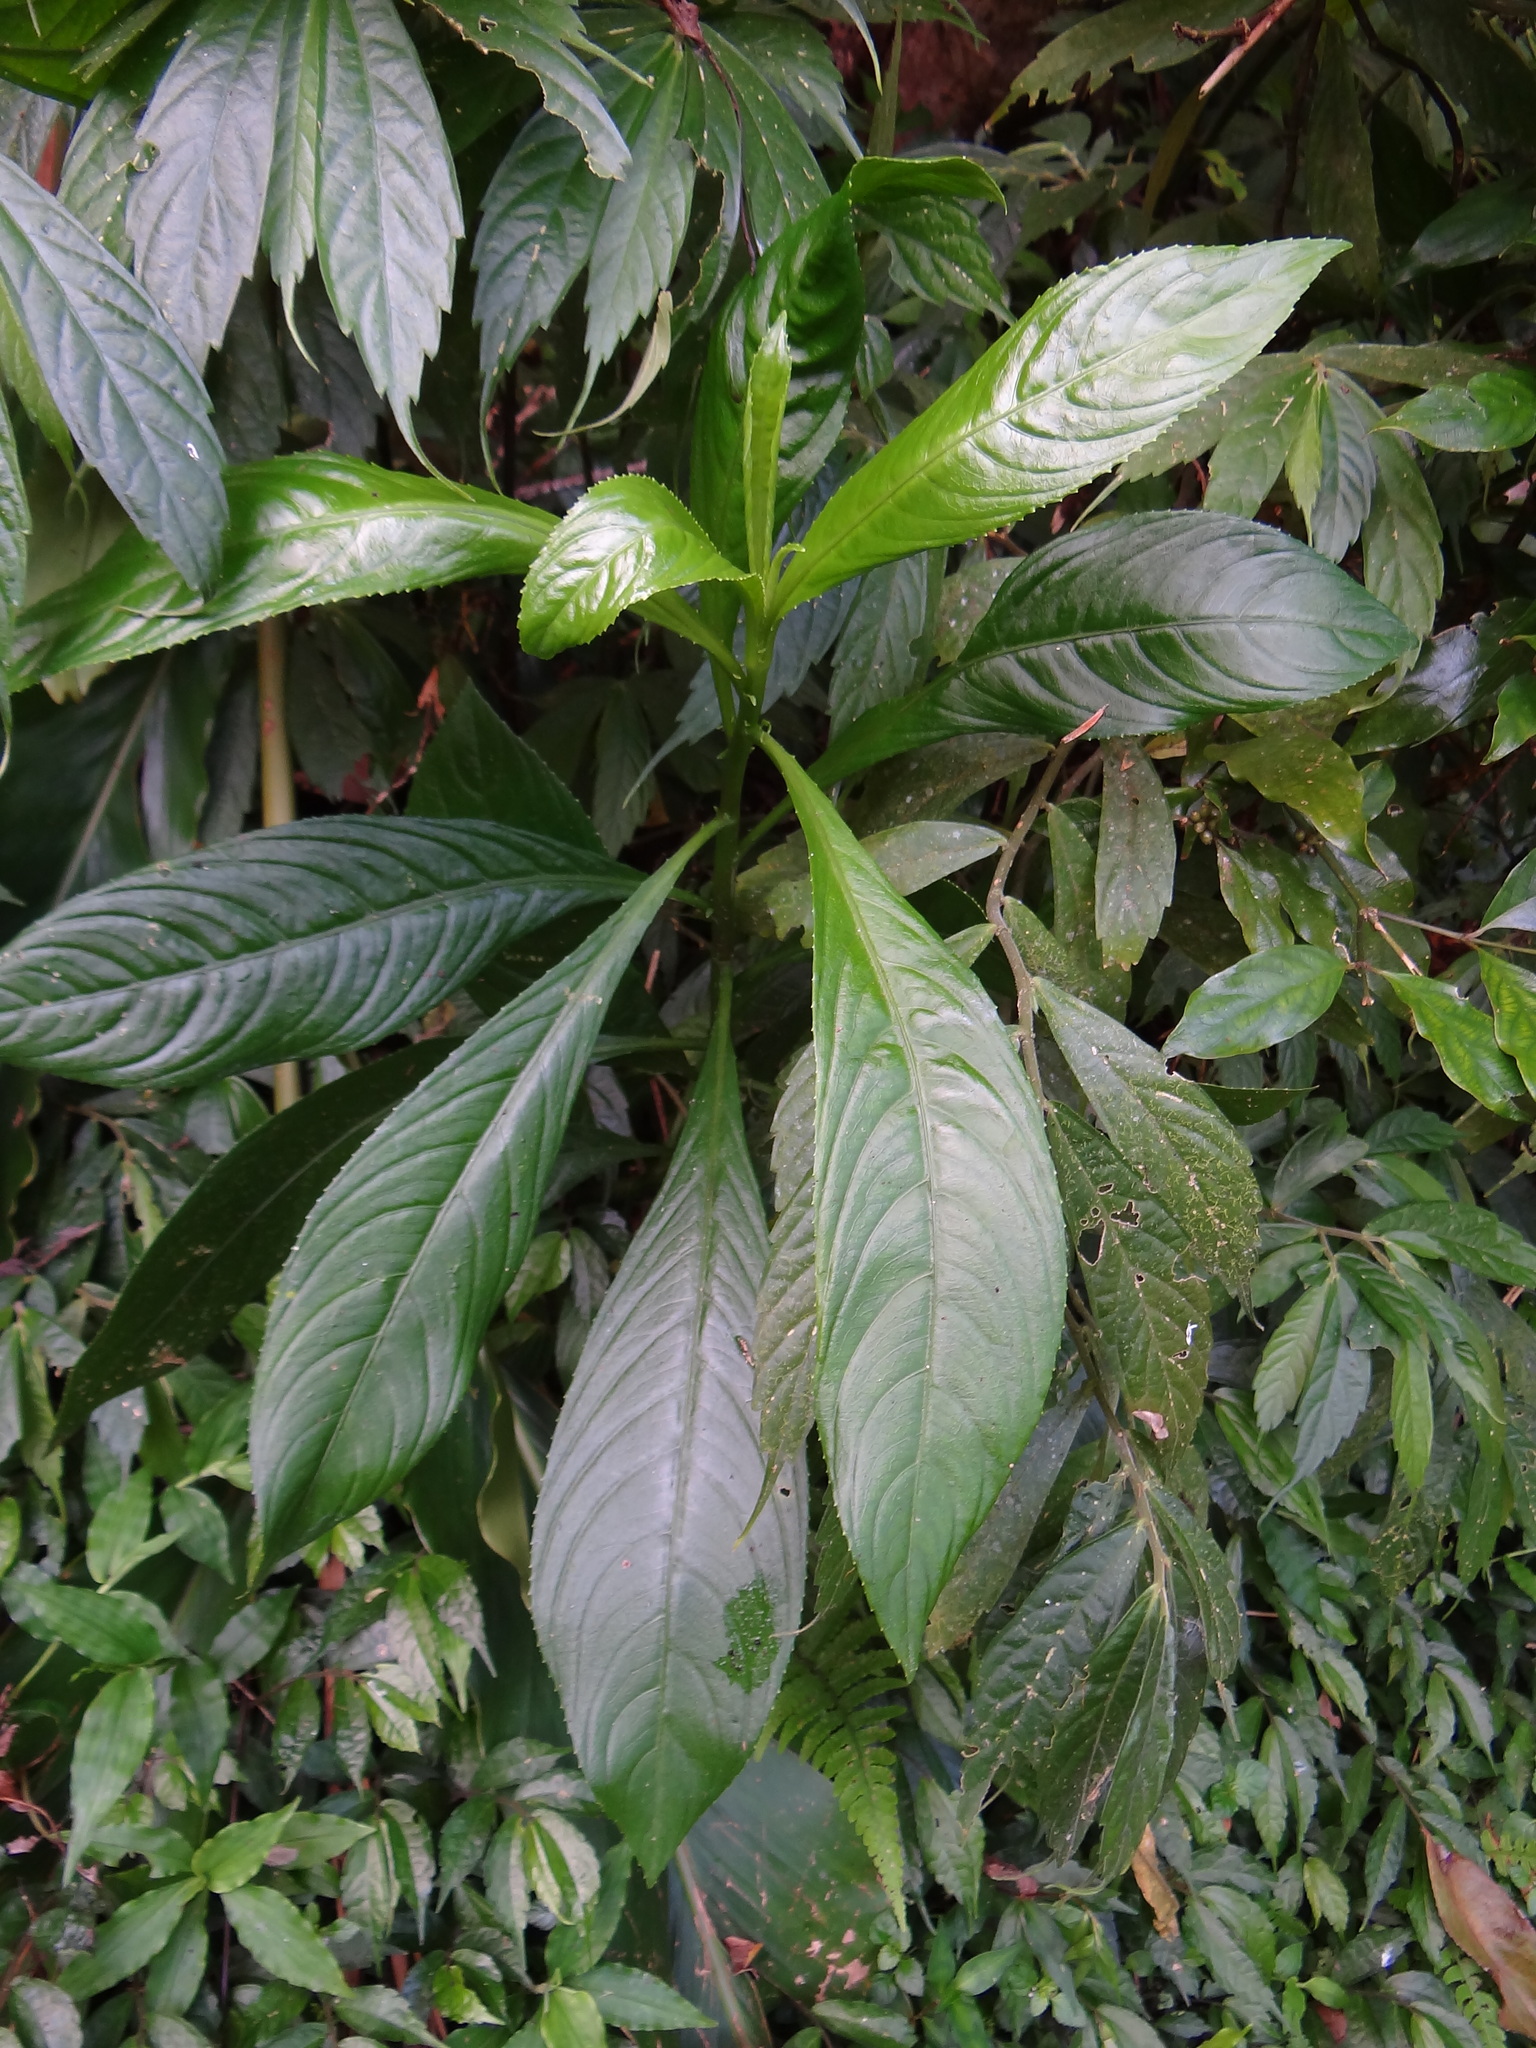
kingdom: Plantae
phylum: Tracheophyta
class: Magnoliopsida
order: Asterales
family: Asteraceae
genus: Blumea
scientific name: Blumea lanceolaria
